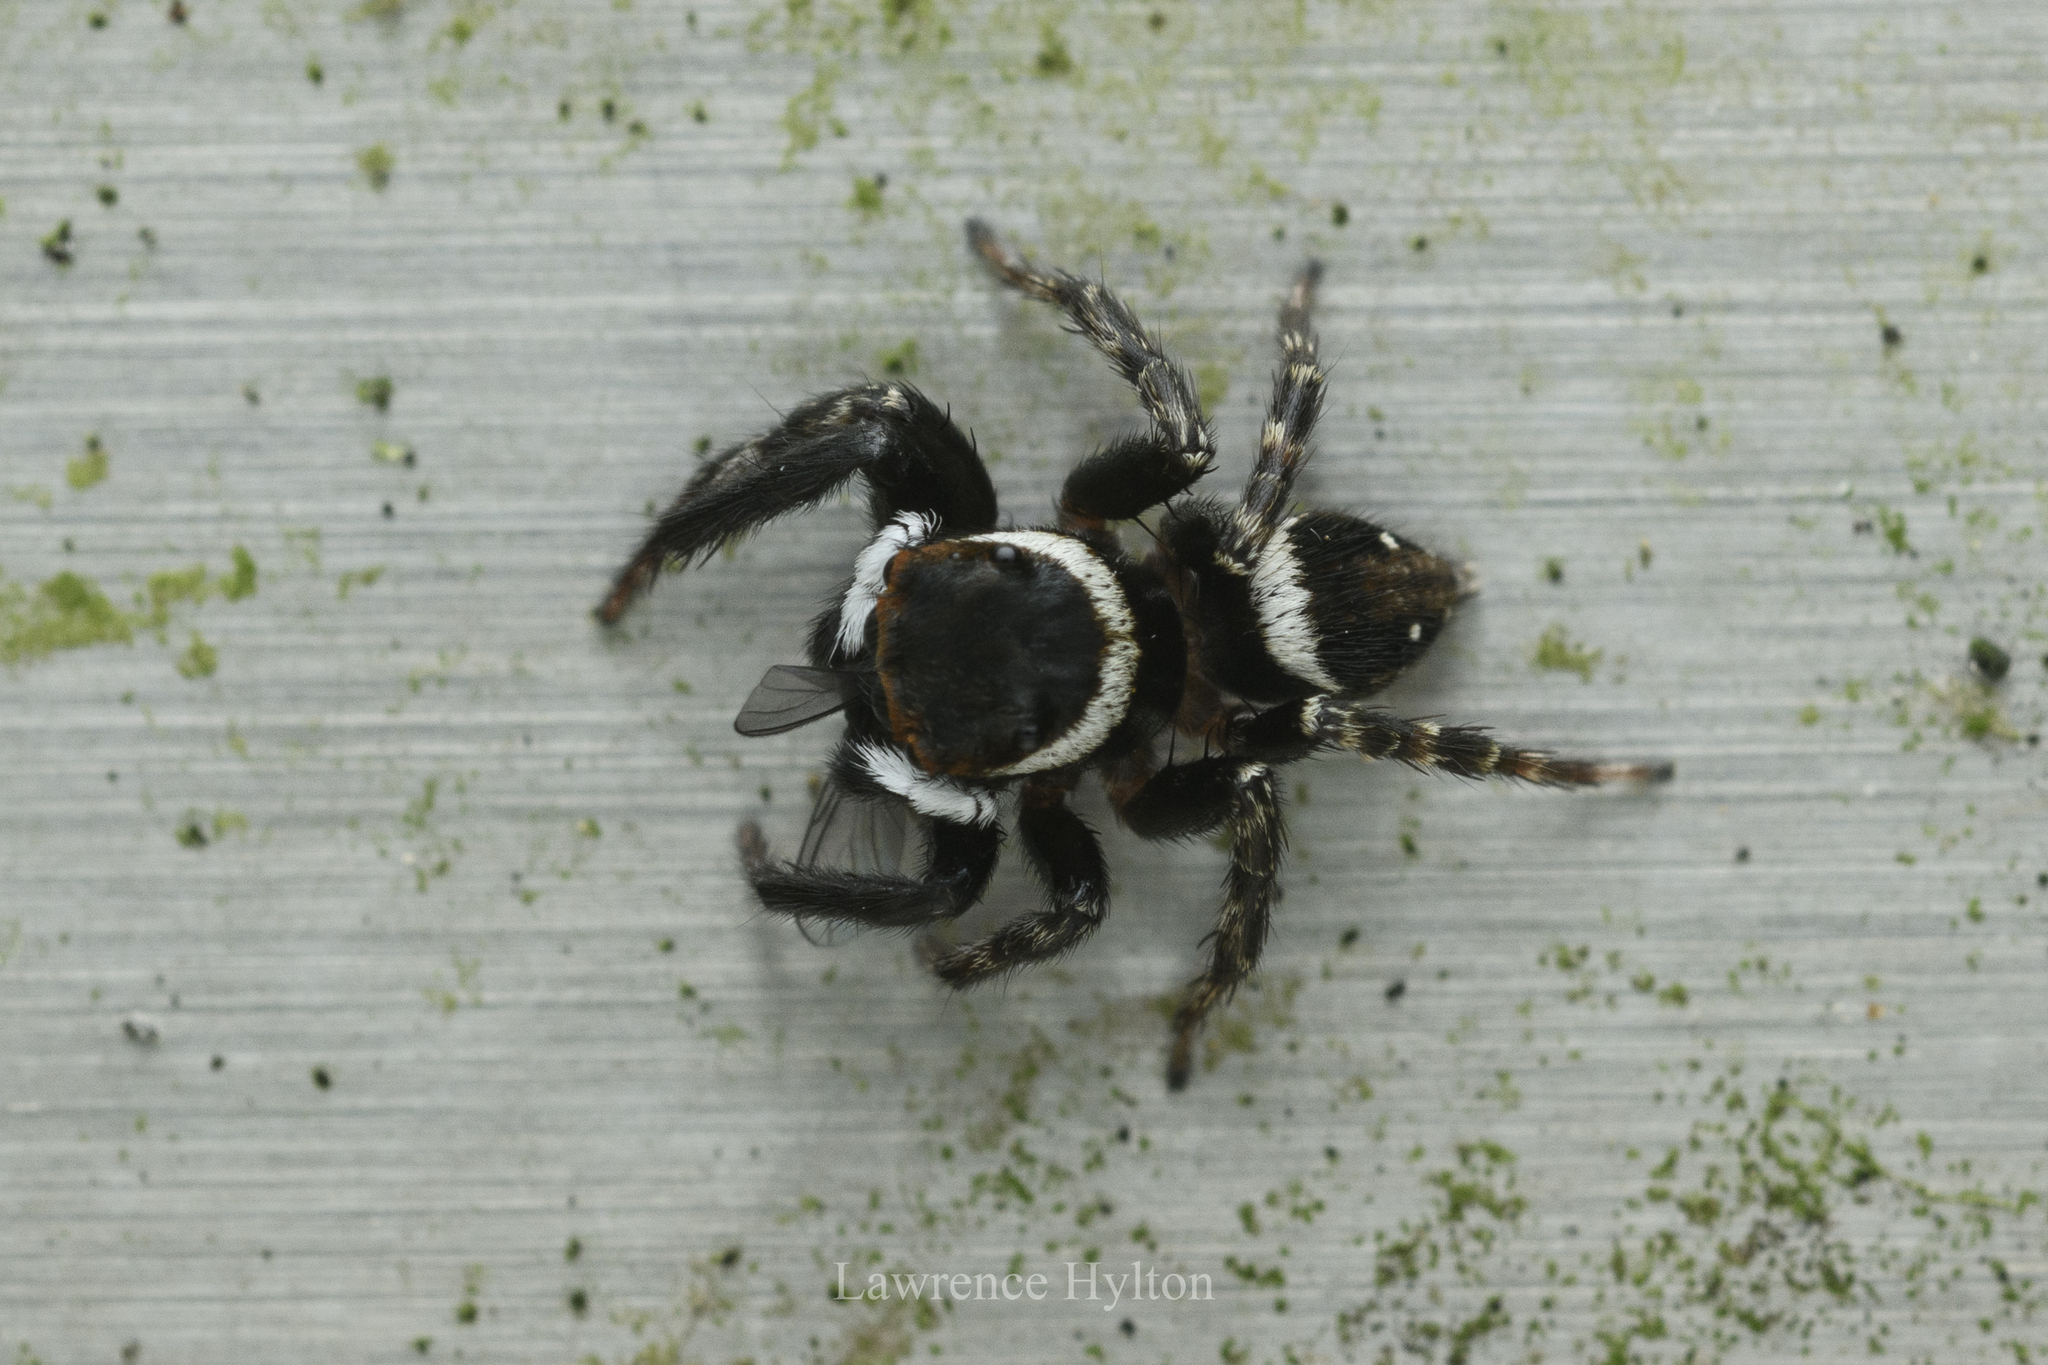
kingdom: Animalia
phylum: Arthropoda
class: Arachnida
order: Araneae
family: Salticidae
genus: Hasarius
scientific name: Hasarius adansoni
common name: Jumping spider
